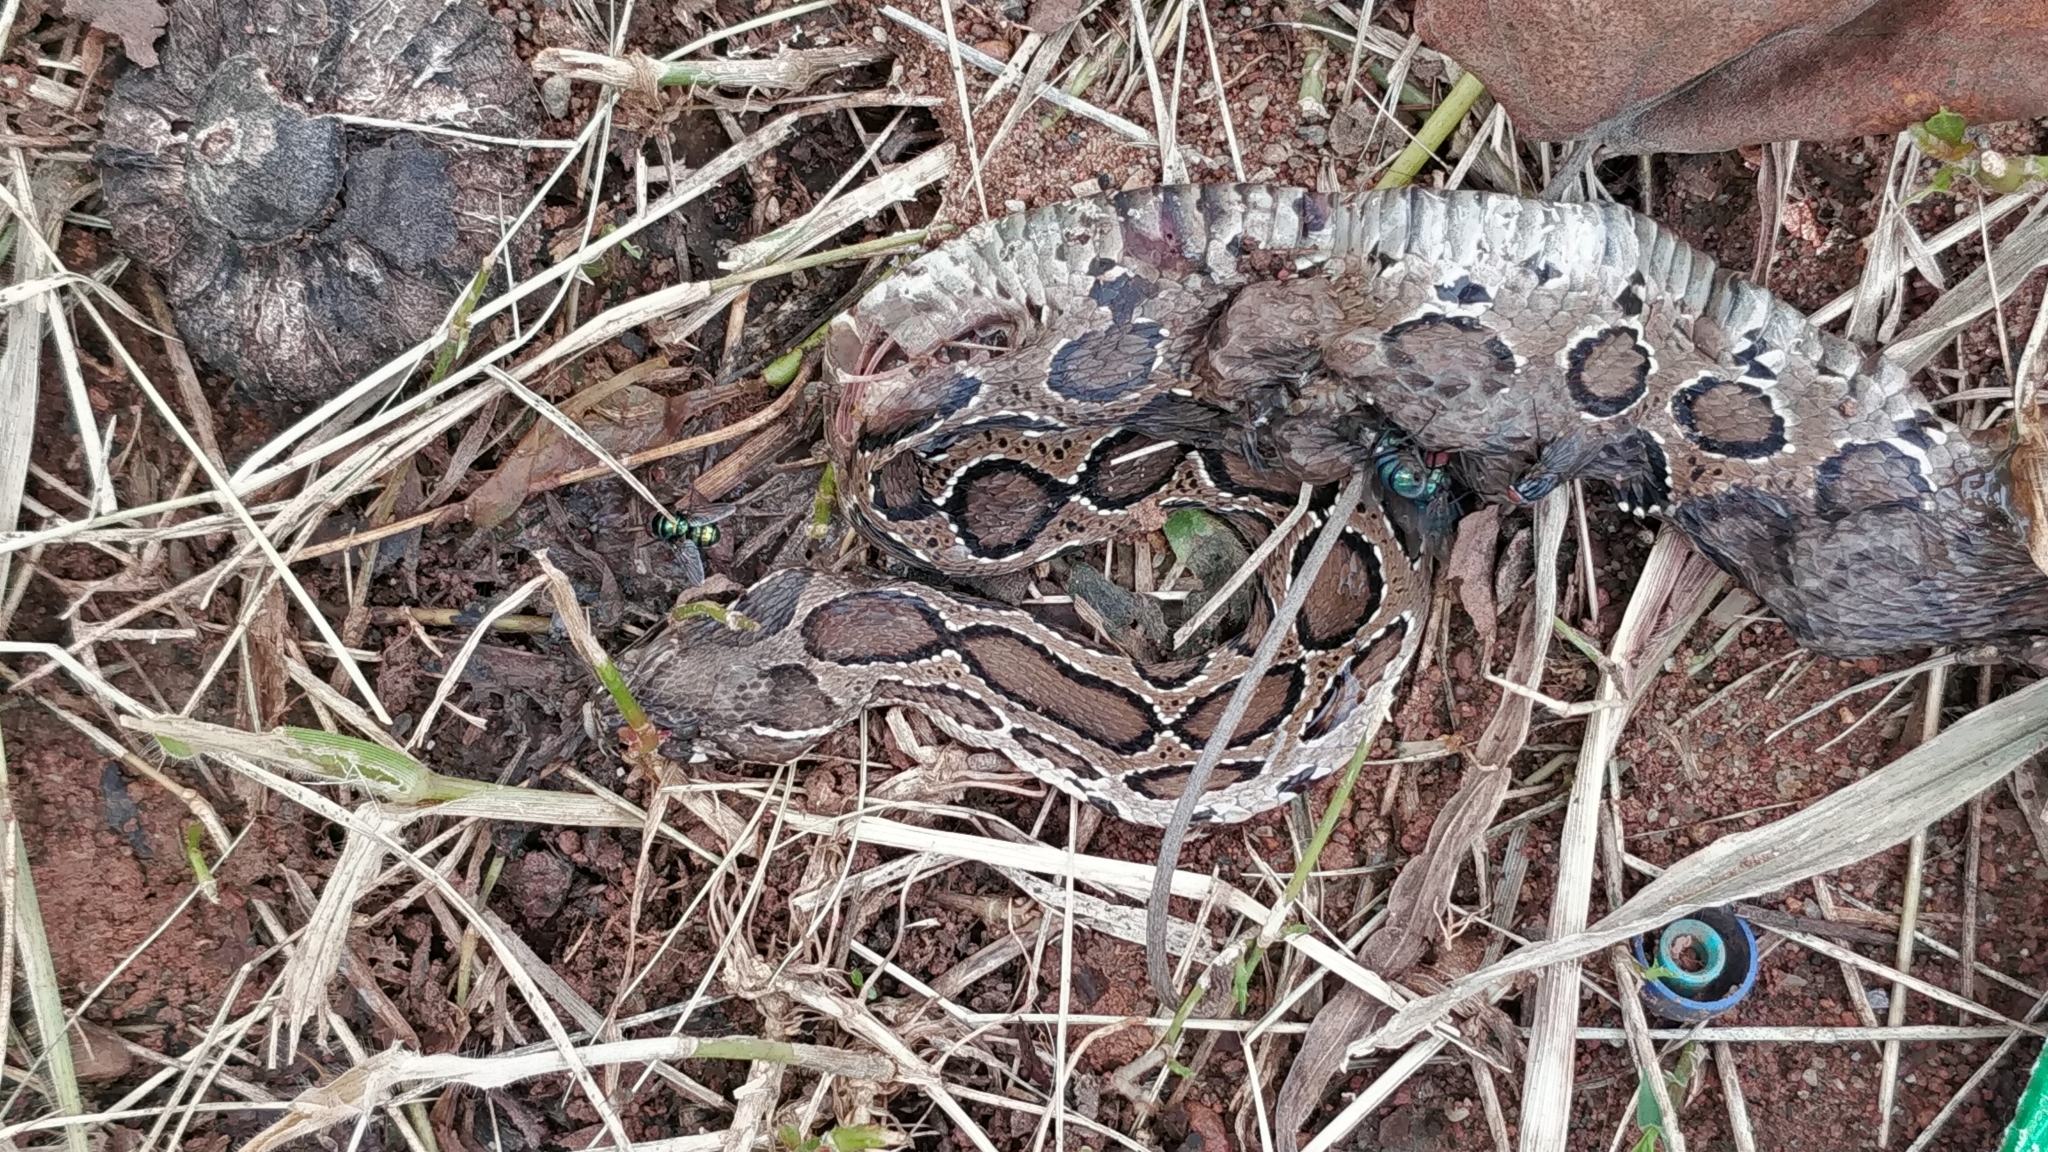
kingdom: Animalia
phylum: Chordata
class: Squamata
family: Viperidae
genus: Daboia
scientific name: Daboia russelii
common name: Western russel’s viper
